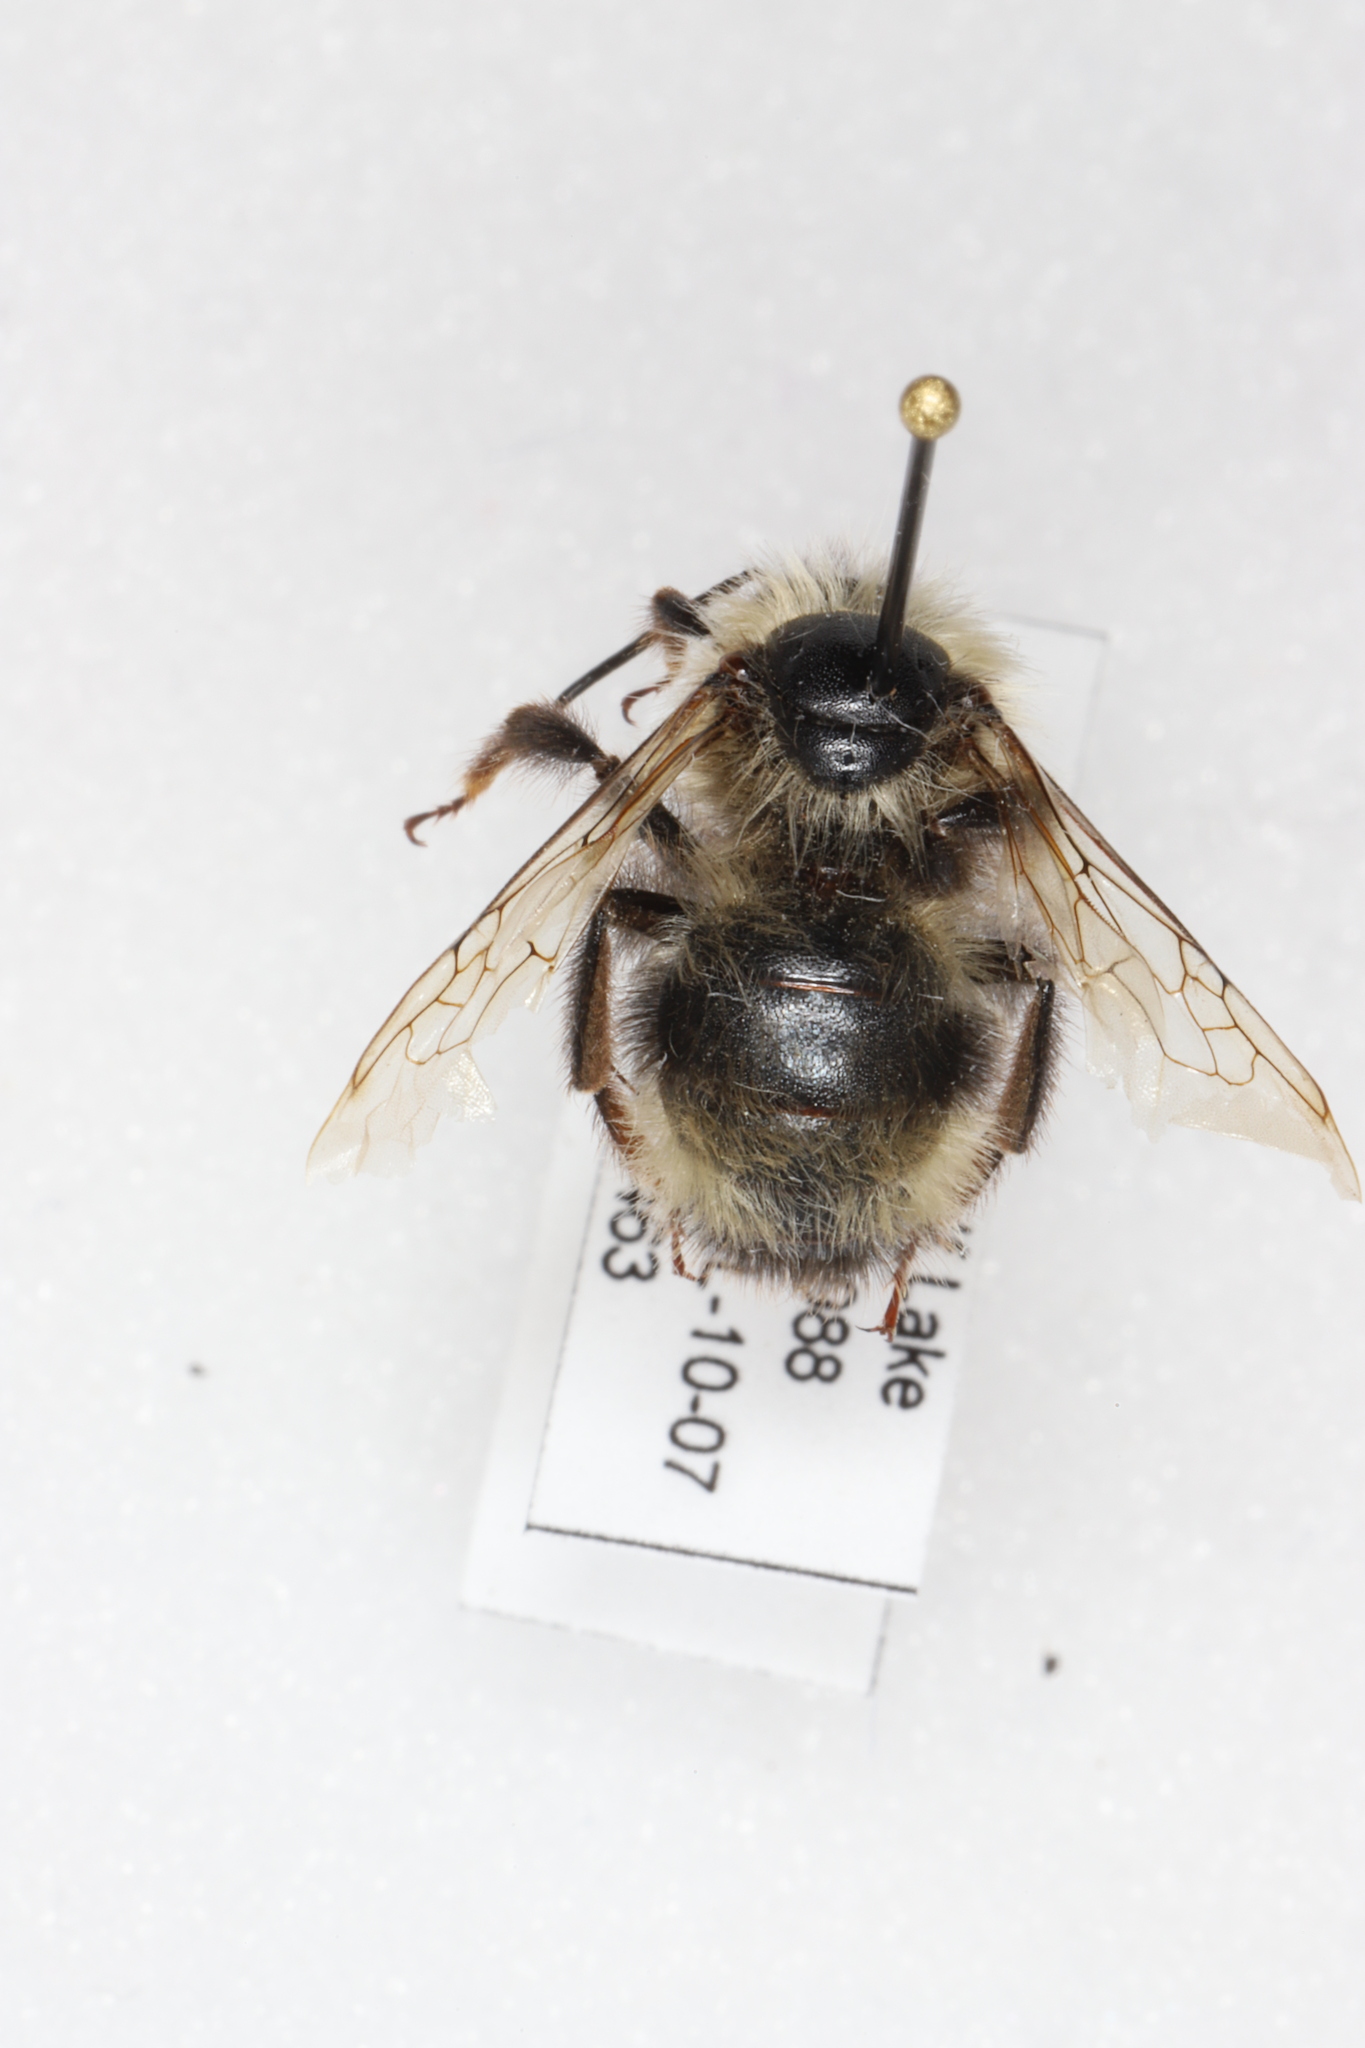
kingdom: Animalia
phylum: Arthropoda
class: Insecta
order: Hymenoptera
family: Apidae
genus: Bombus
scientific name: Bombus flavidus
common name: Fernald cuckoo bumble bee
